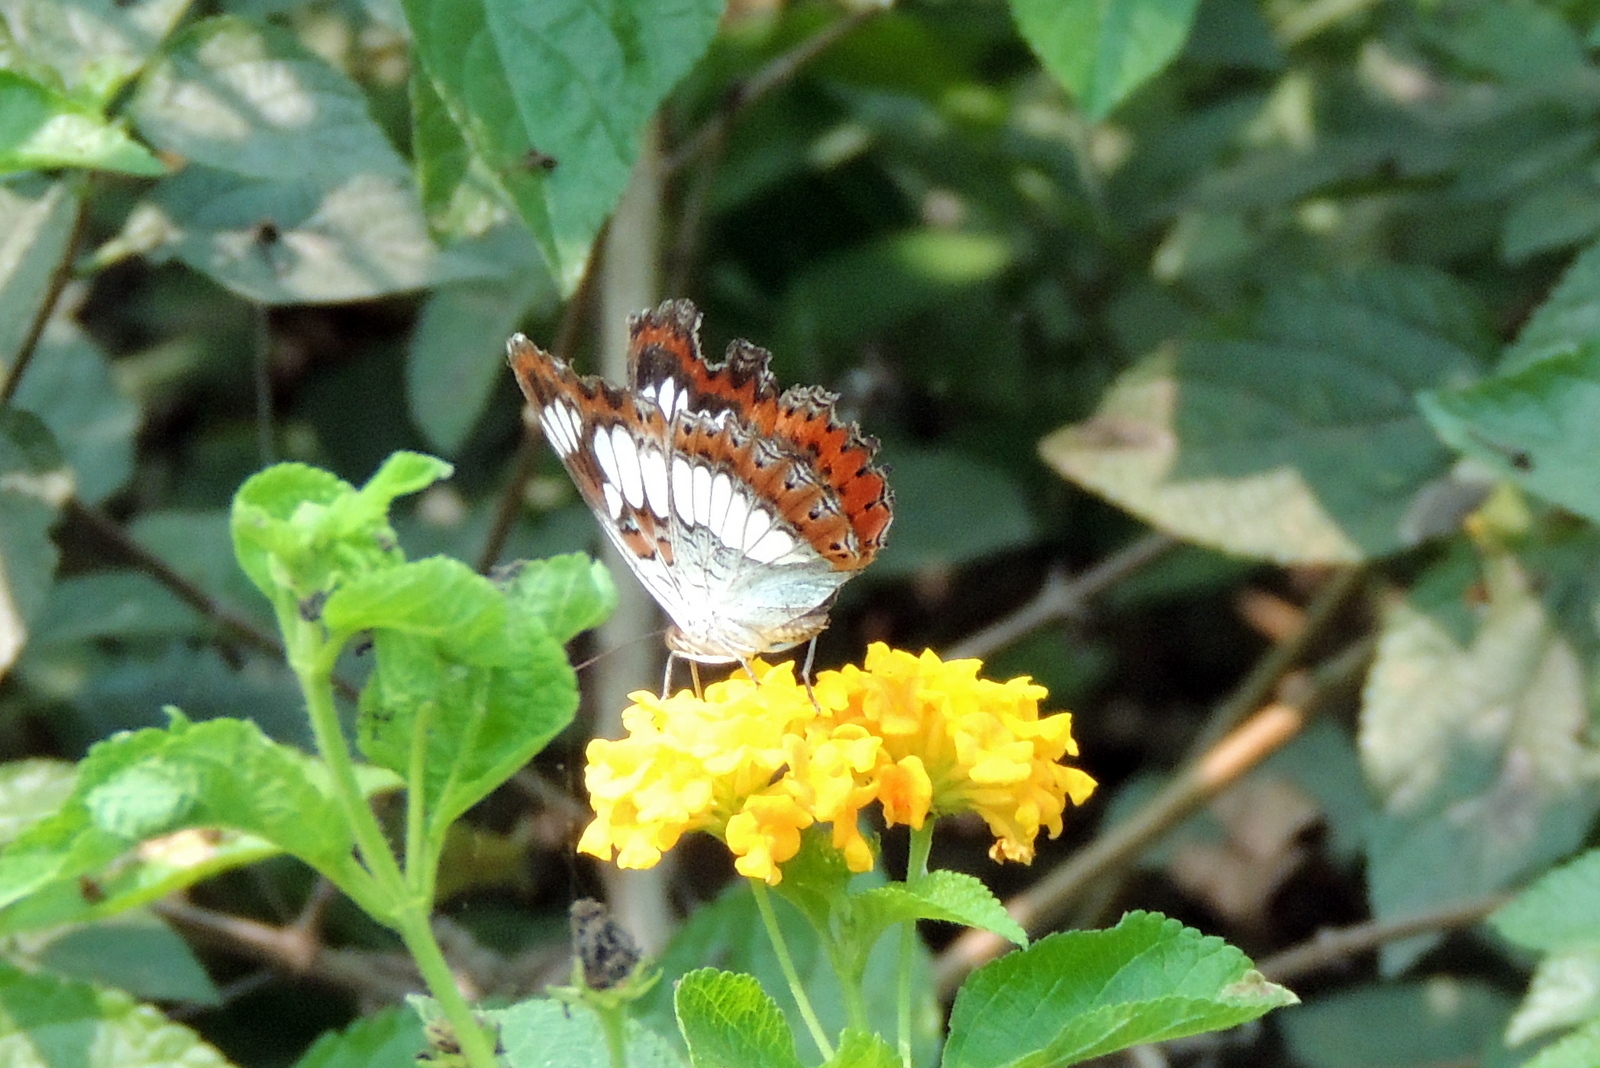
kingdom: Animalia
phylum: Arthropoda
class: Insecta
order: Lepidoptera
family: Nymphalidae
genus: Limenitis
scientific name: Limenitis Moduza procris
